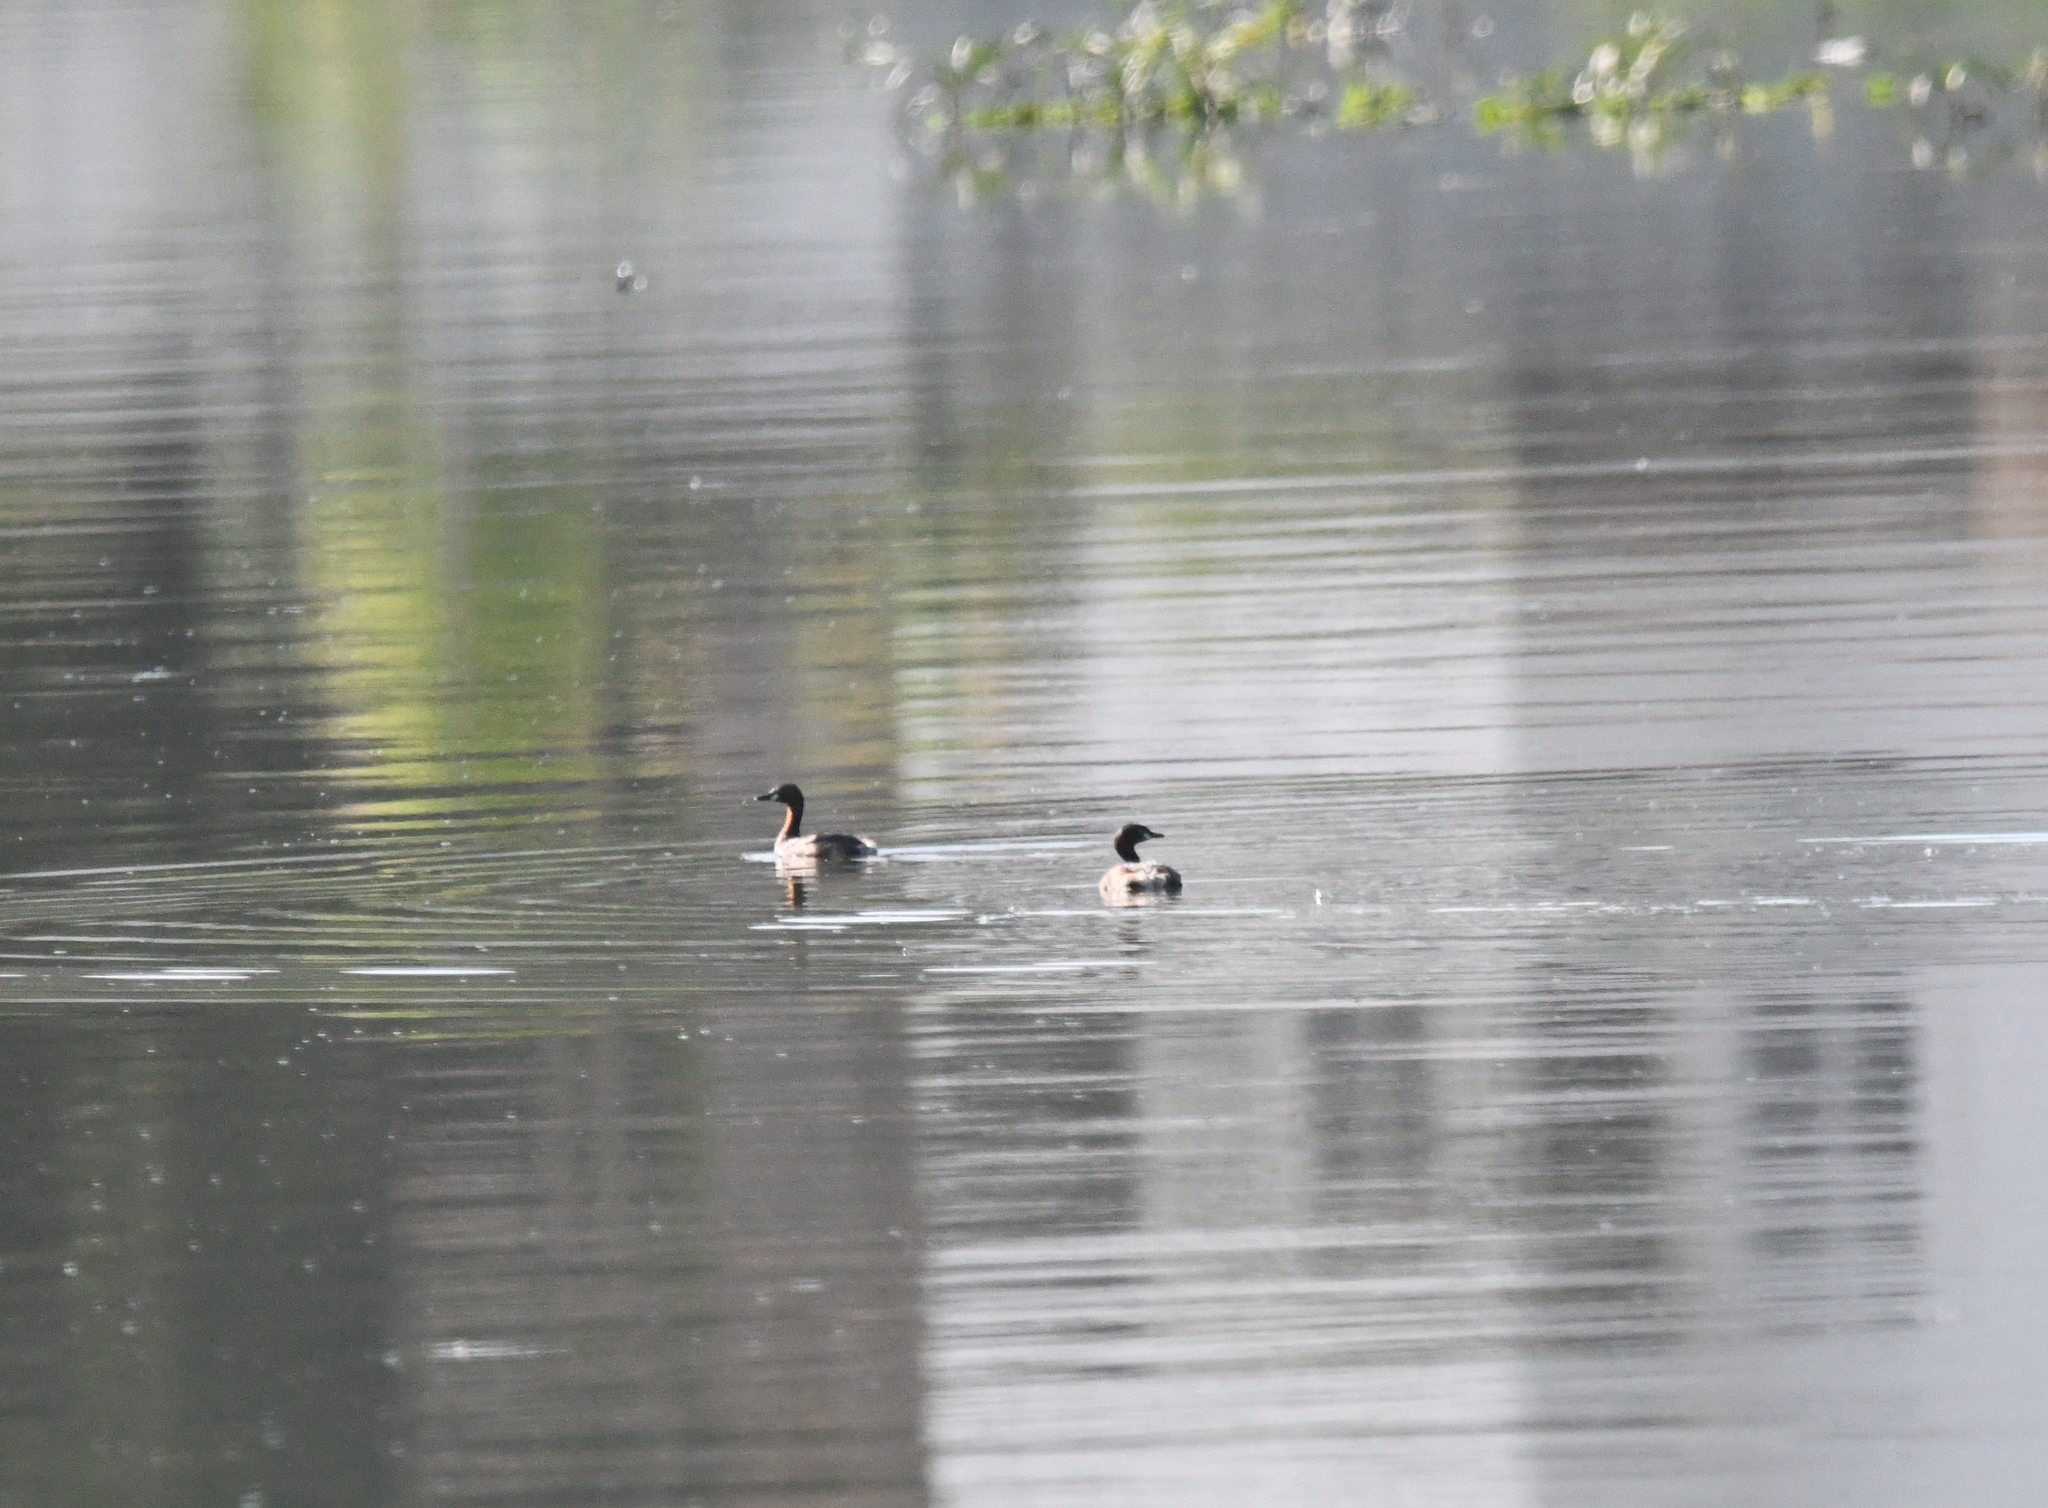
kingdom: Animalia
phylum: Chordata
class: Aves
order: Podicipediformes
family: Podicipedidae
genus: Tachybaptus
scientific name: Tachybaptus ruficollis
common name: Little grebe
